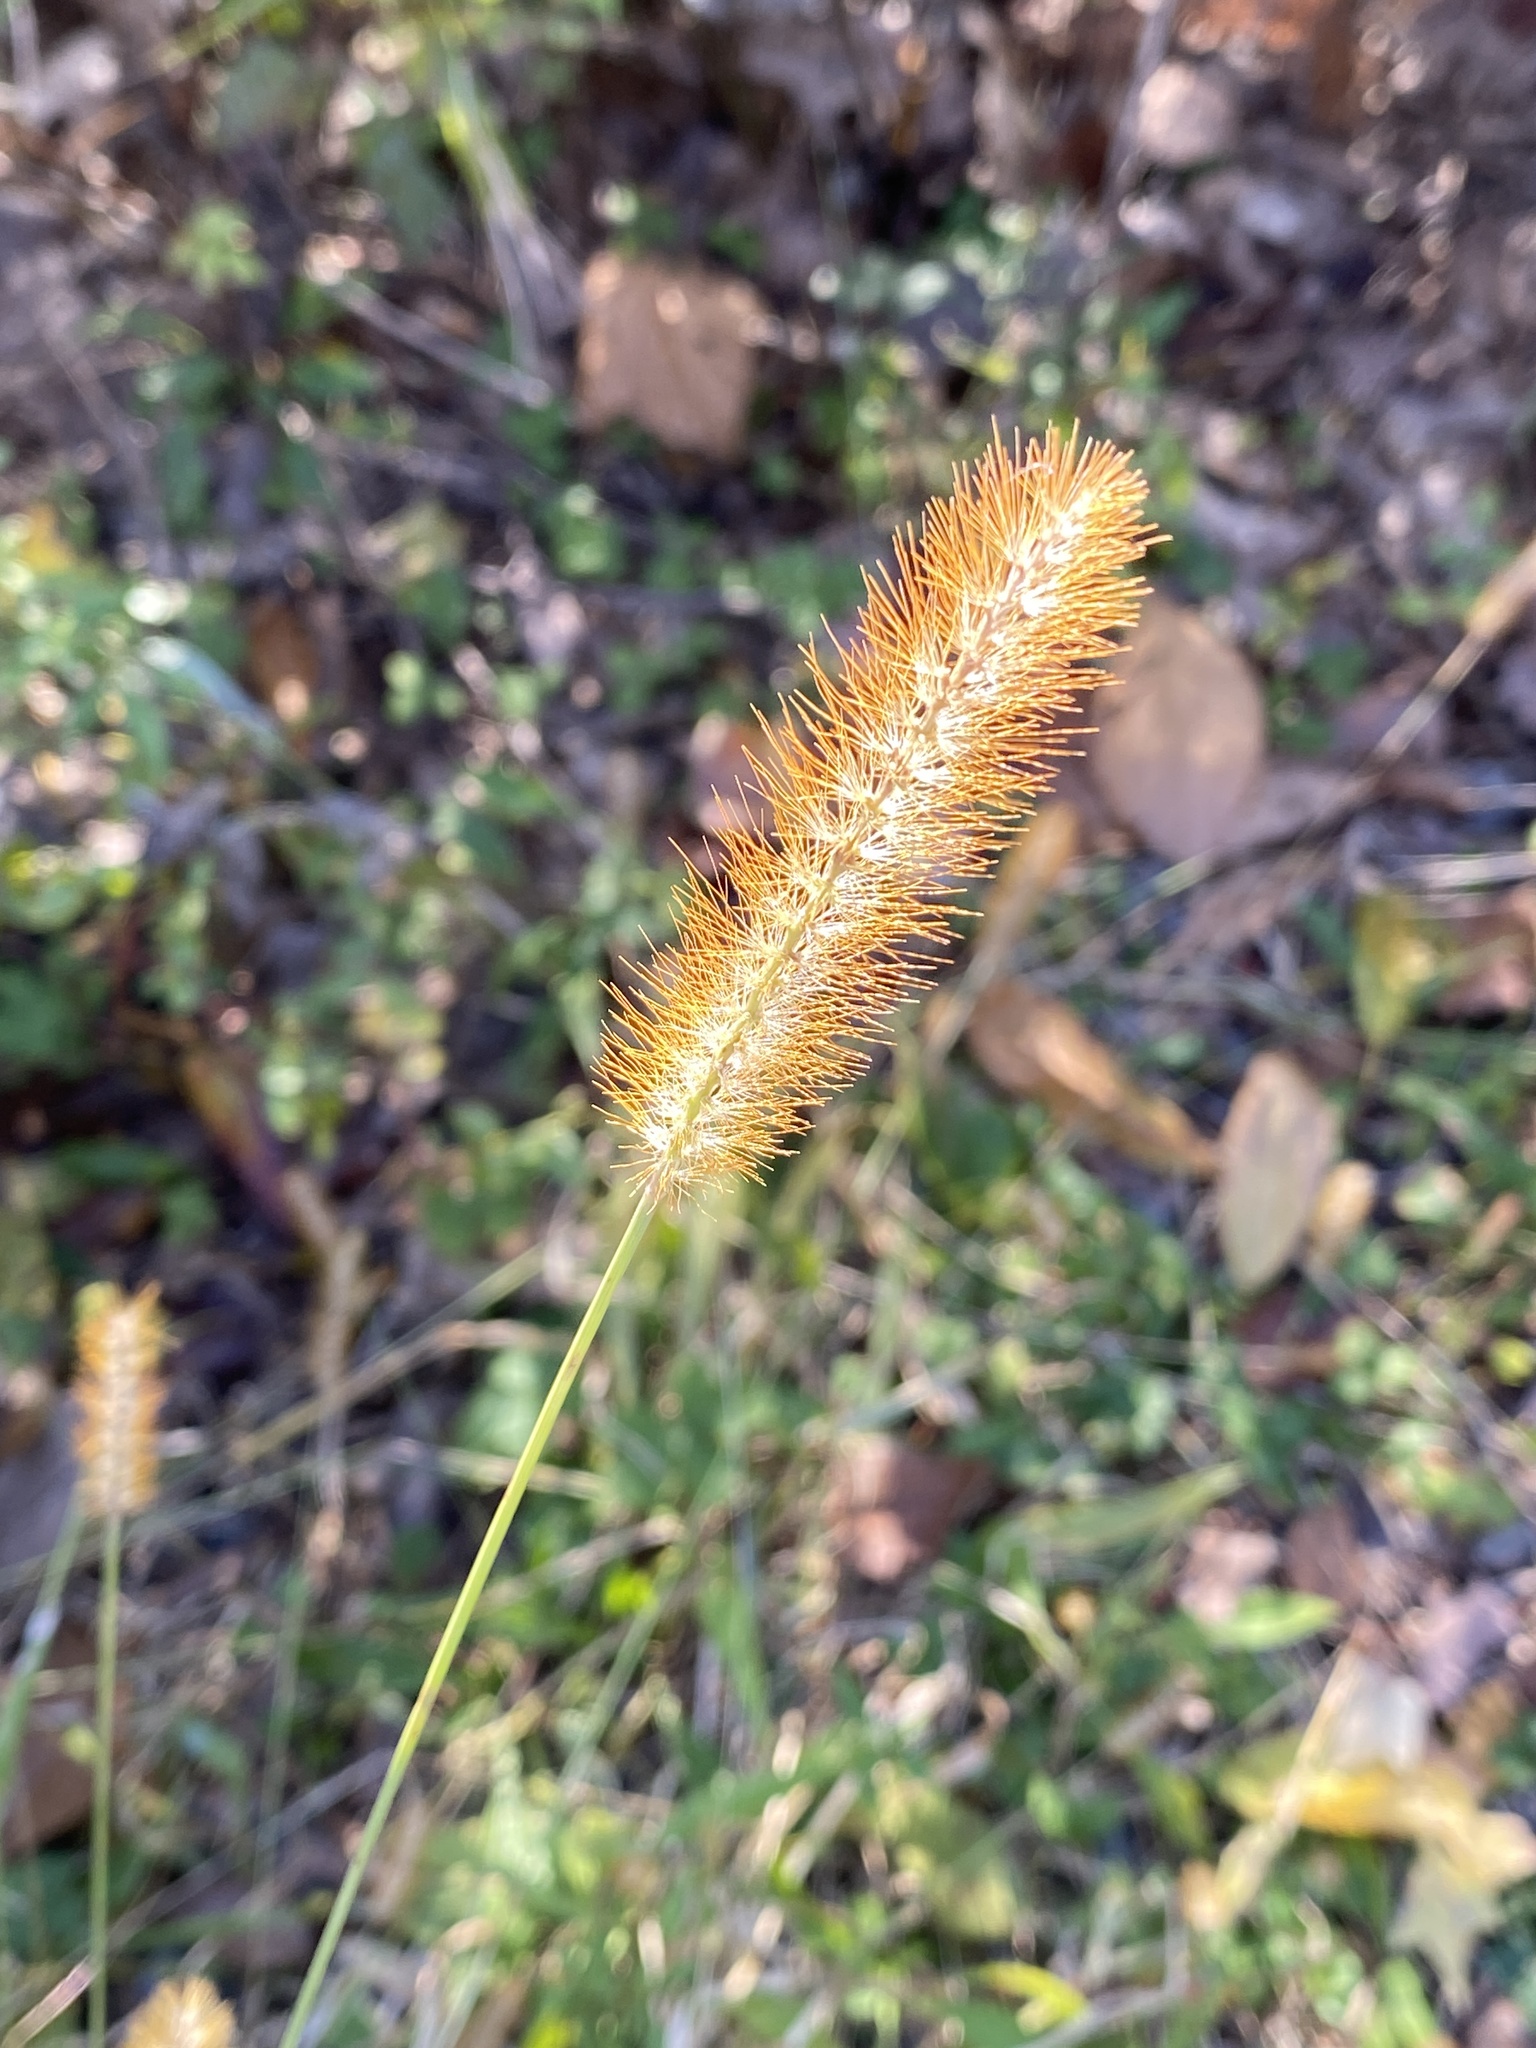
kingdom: Plantae
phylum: Tracheophyta
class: Liliopsida
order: Poales
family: Poaceae
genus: Setaria
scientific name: Setaria pumila
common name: Yellow bristle-grass
